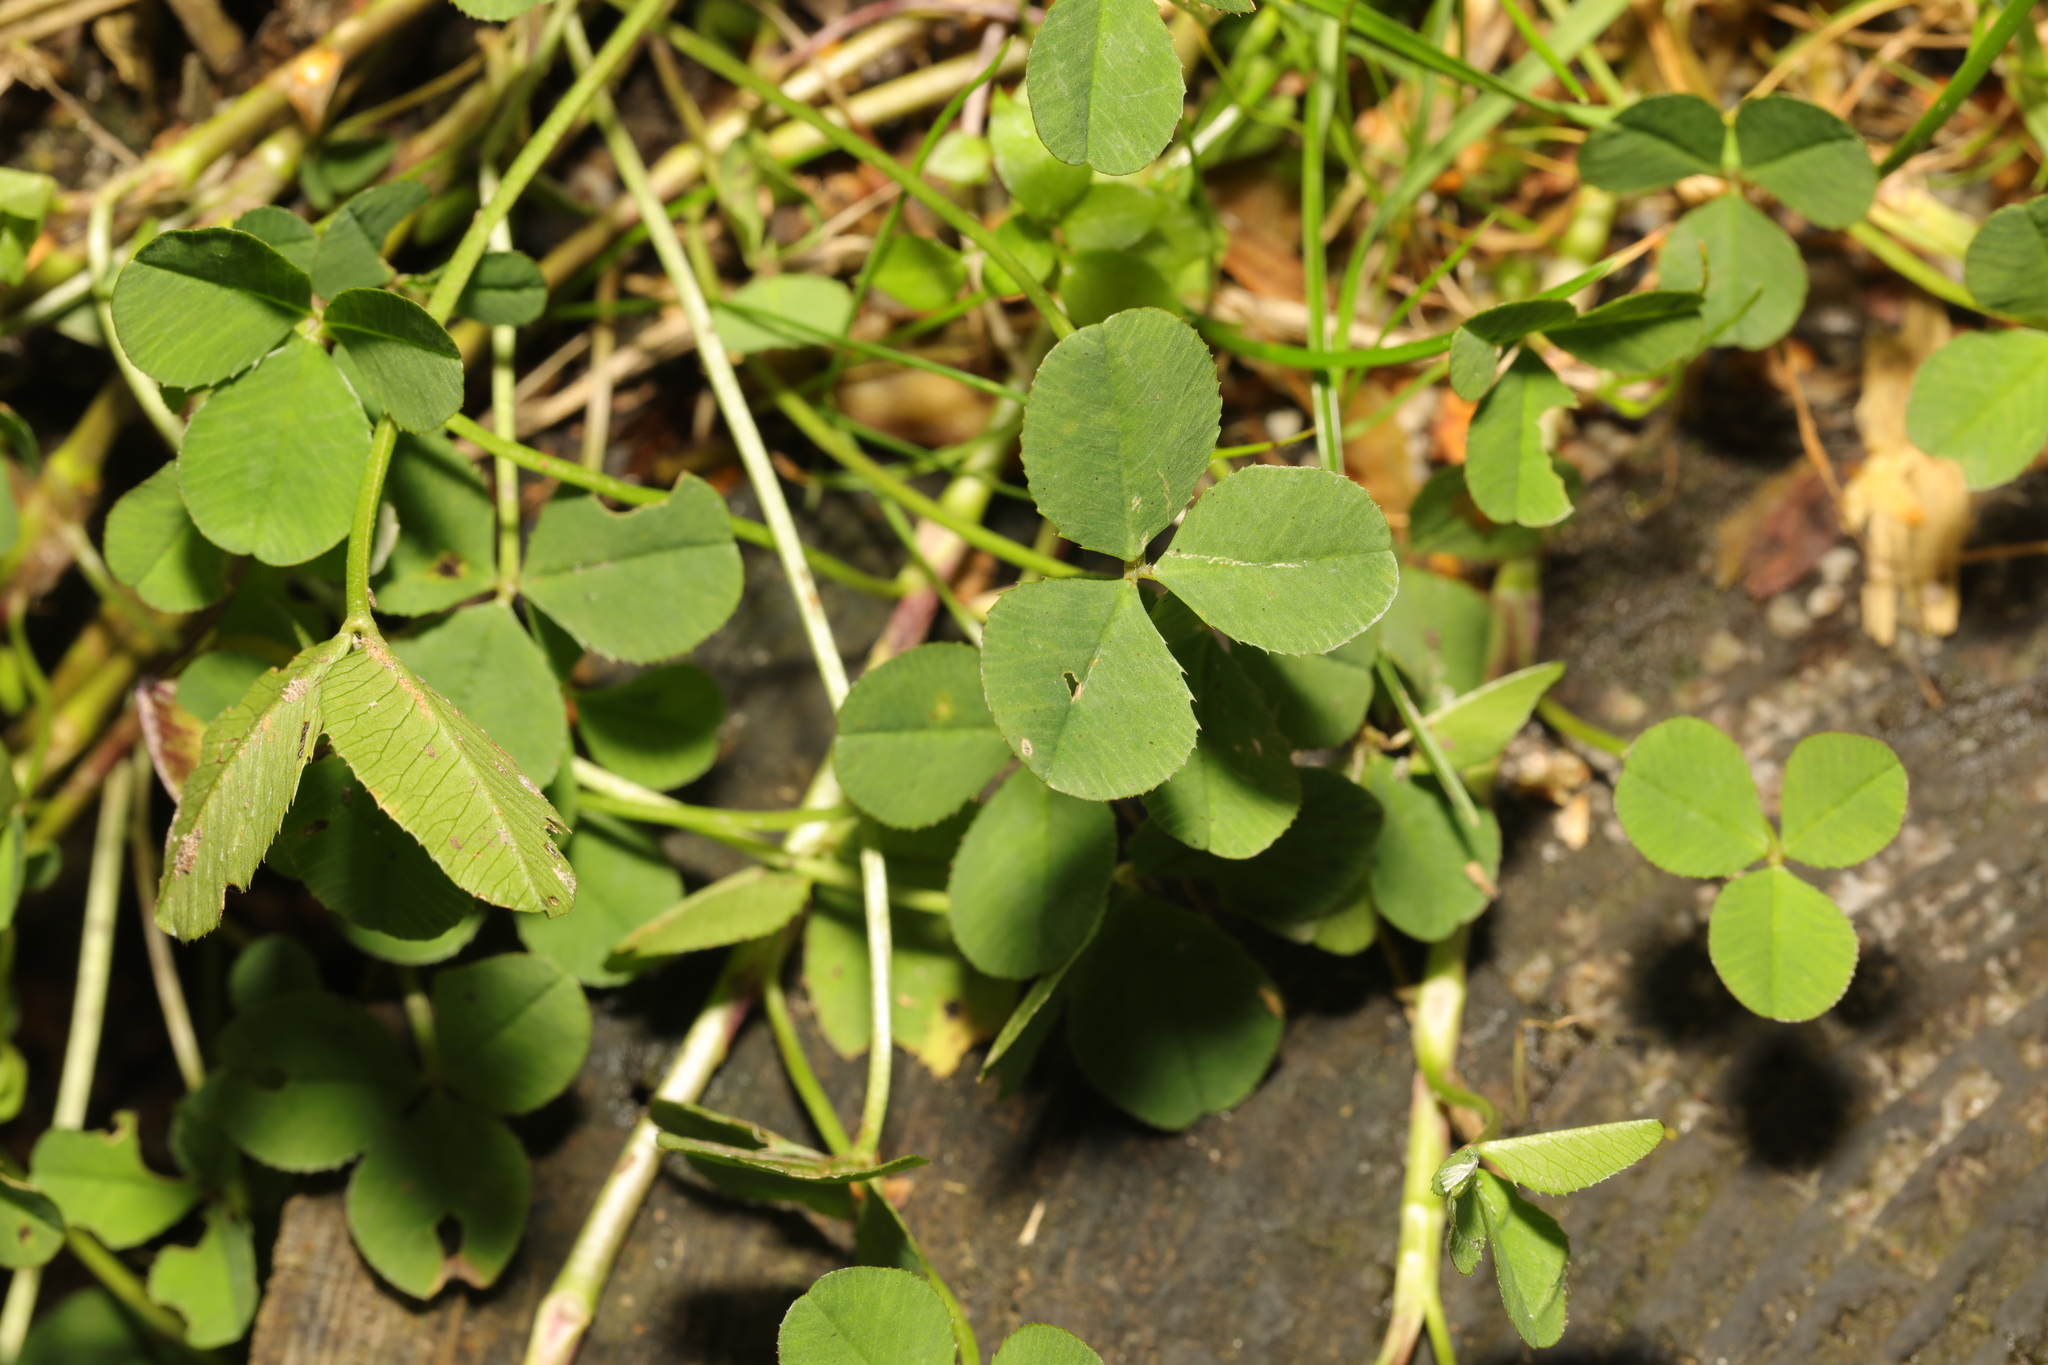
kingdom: Plantae
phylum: Tracheophyta
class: Magnoliopsida
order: Fabales
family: Fabaceae
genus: Trifolium
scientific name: Trifolium repens
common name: White clover
